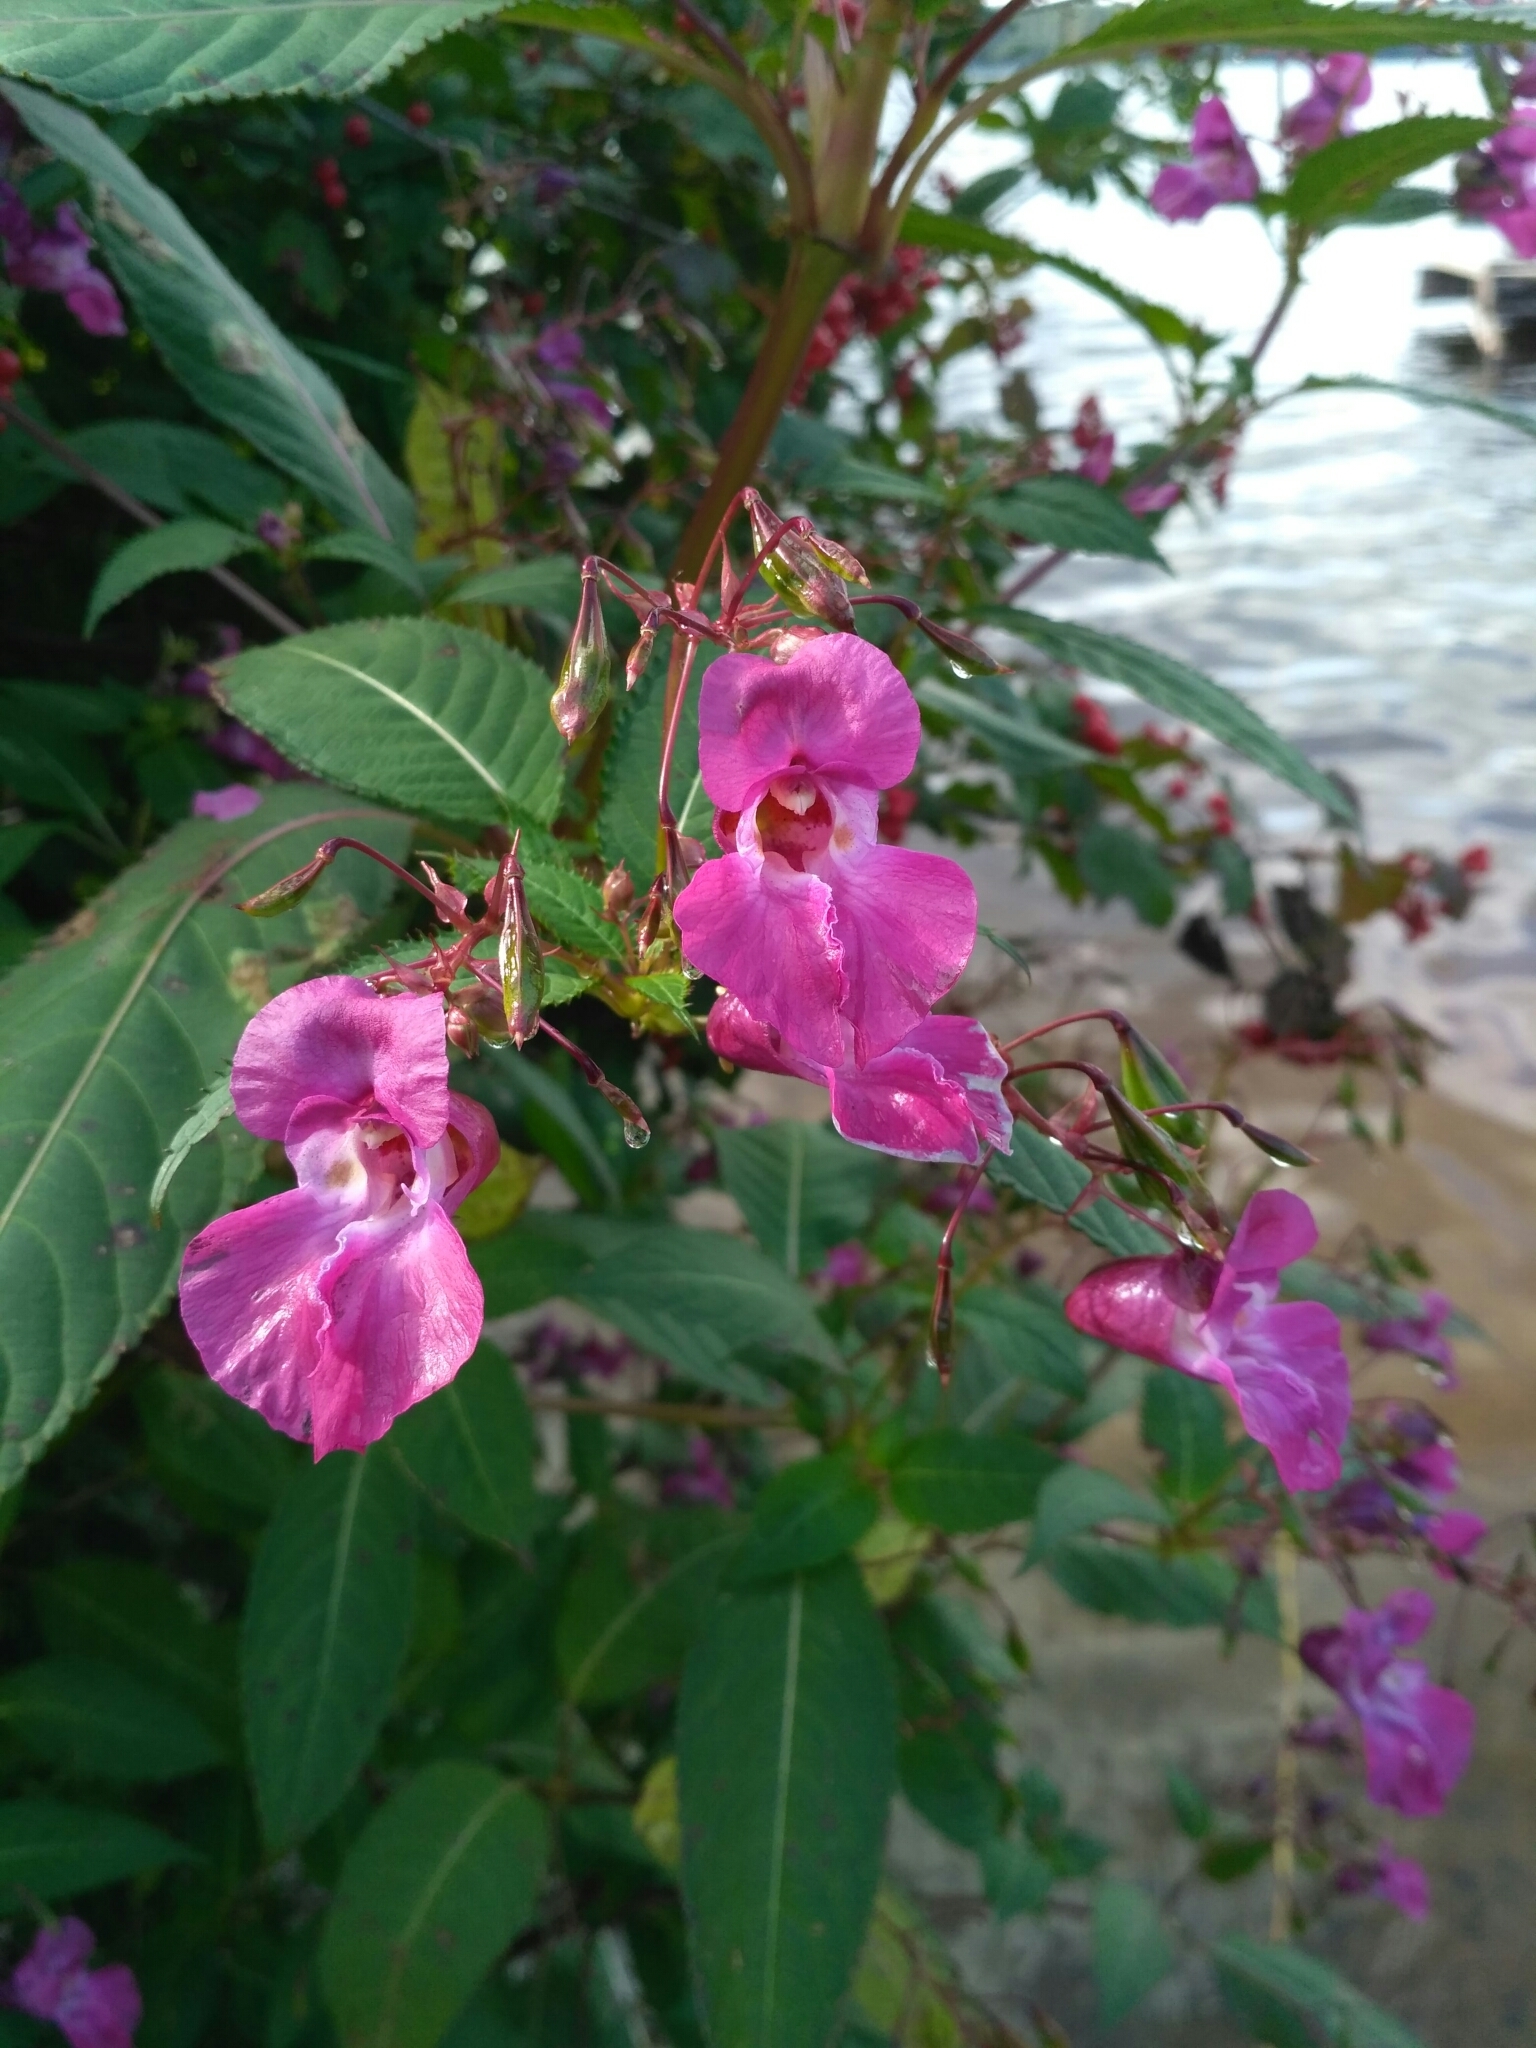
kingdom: Plantae
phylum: Tracheophyta
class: Magnoliopsida
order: Ericales
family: Balsaminaceae
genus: Impatiens
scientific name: Impatiens glandulifera
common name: Himalayan balsam
